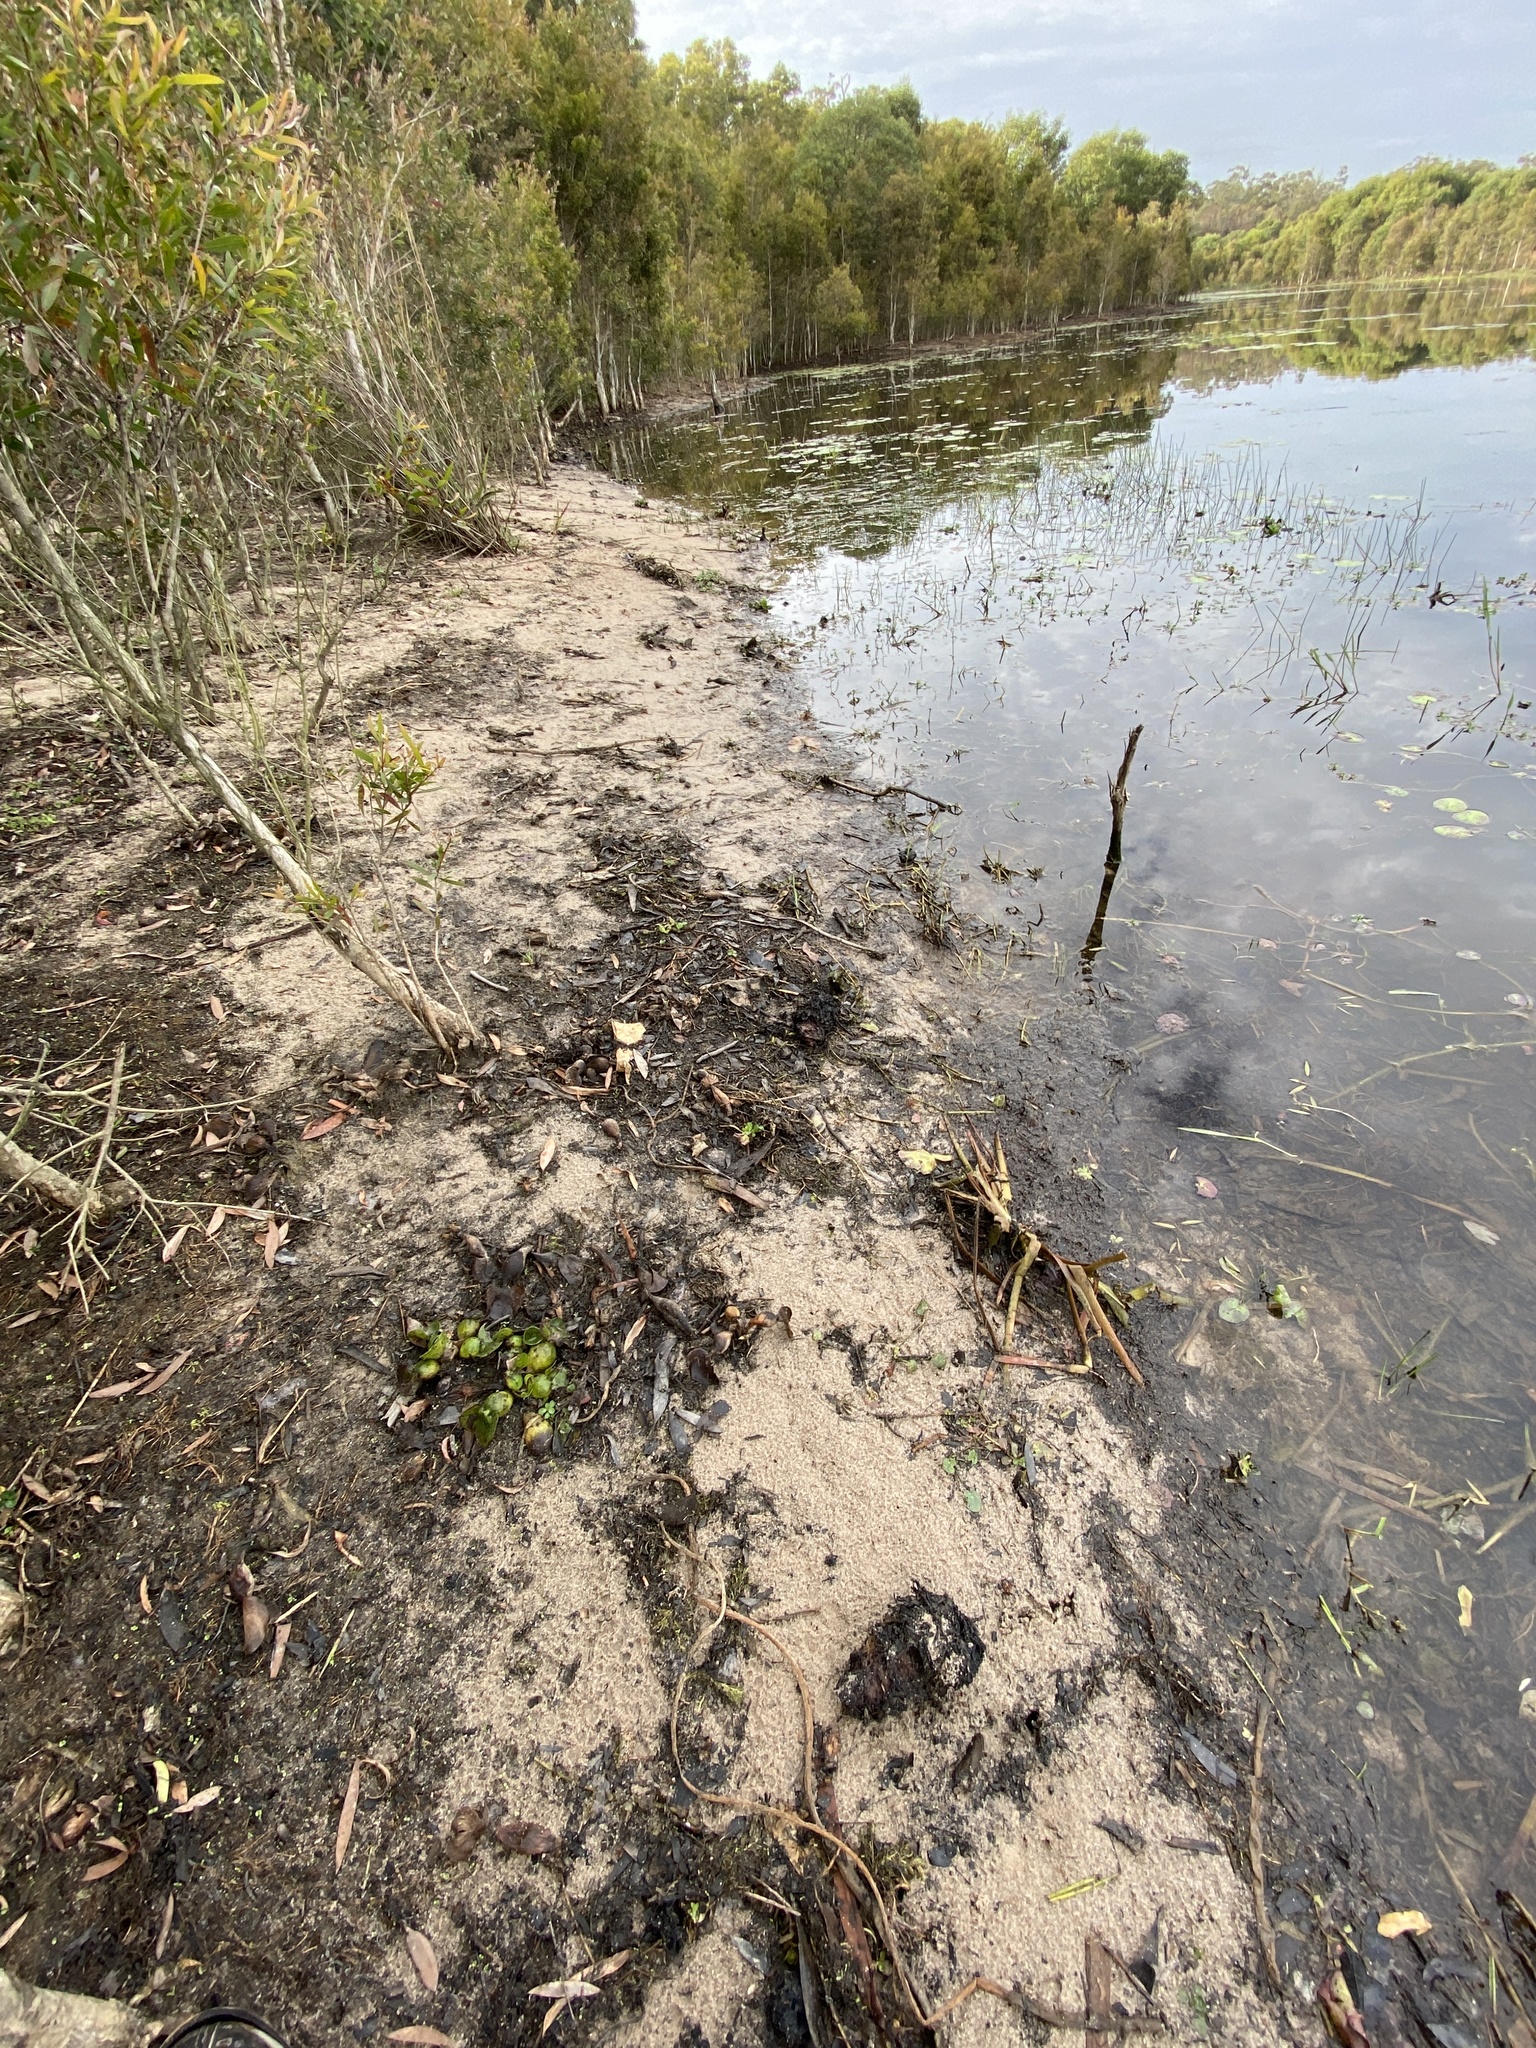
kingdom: Plantae
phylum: Tracheophyta
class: Liliopsida
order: Commelinales
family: Pontederiaceae
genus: Pontederia
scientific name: Pontederia crassipes
